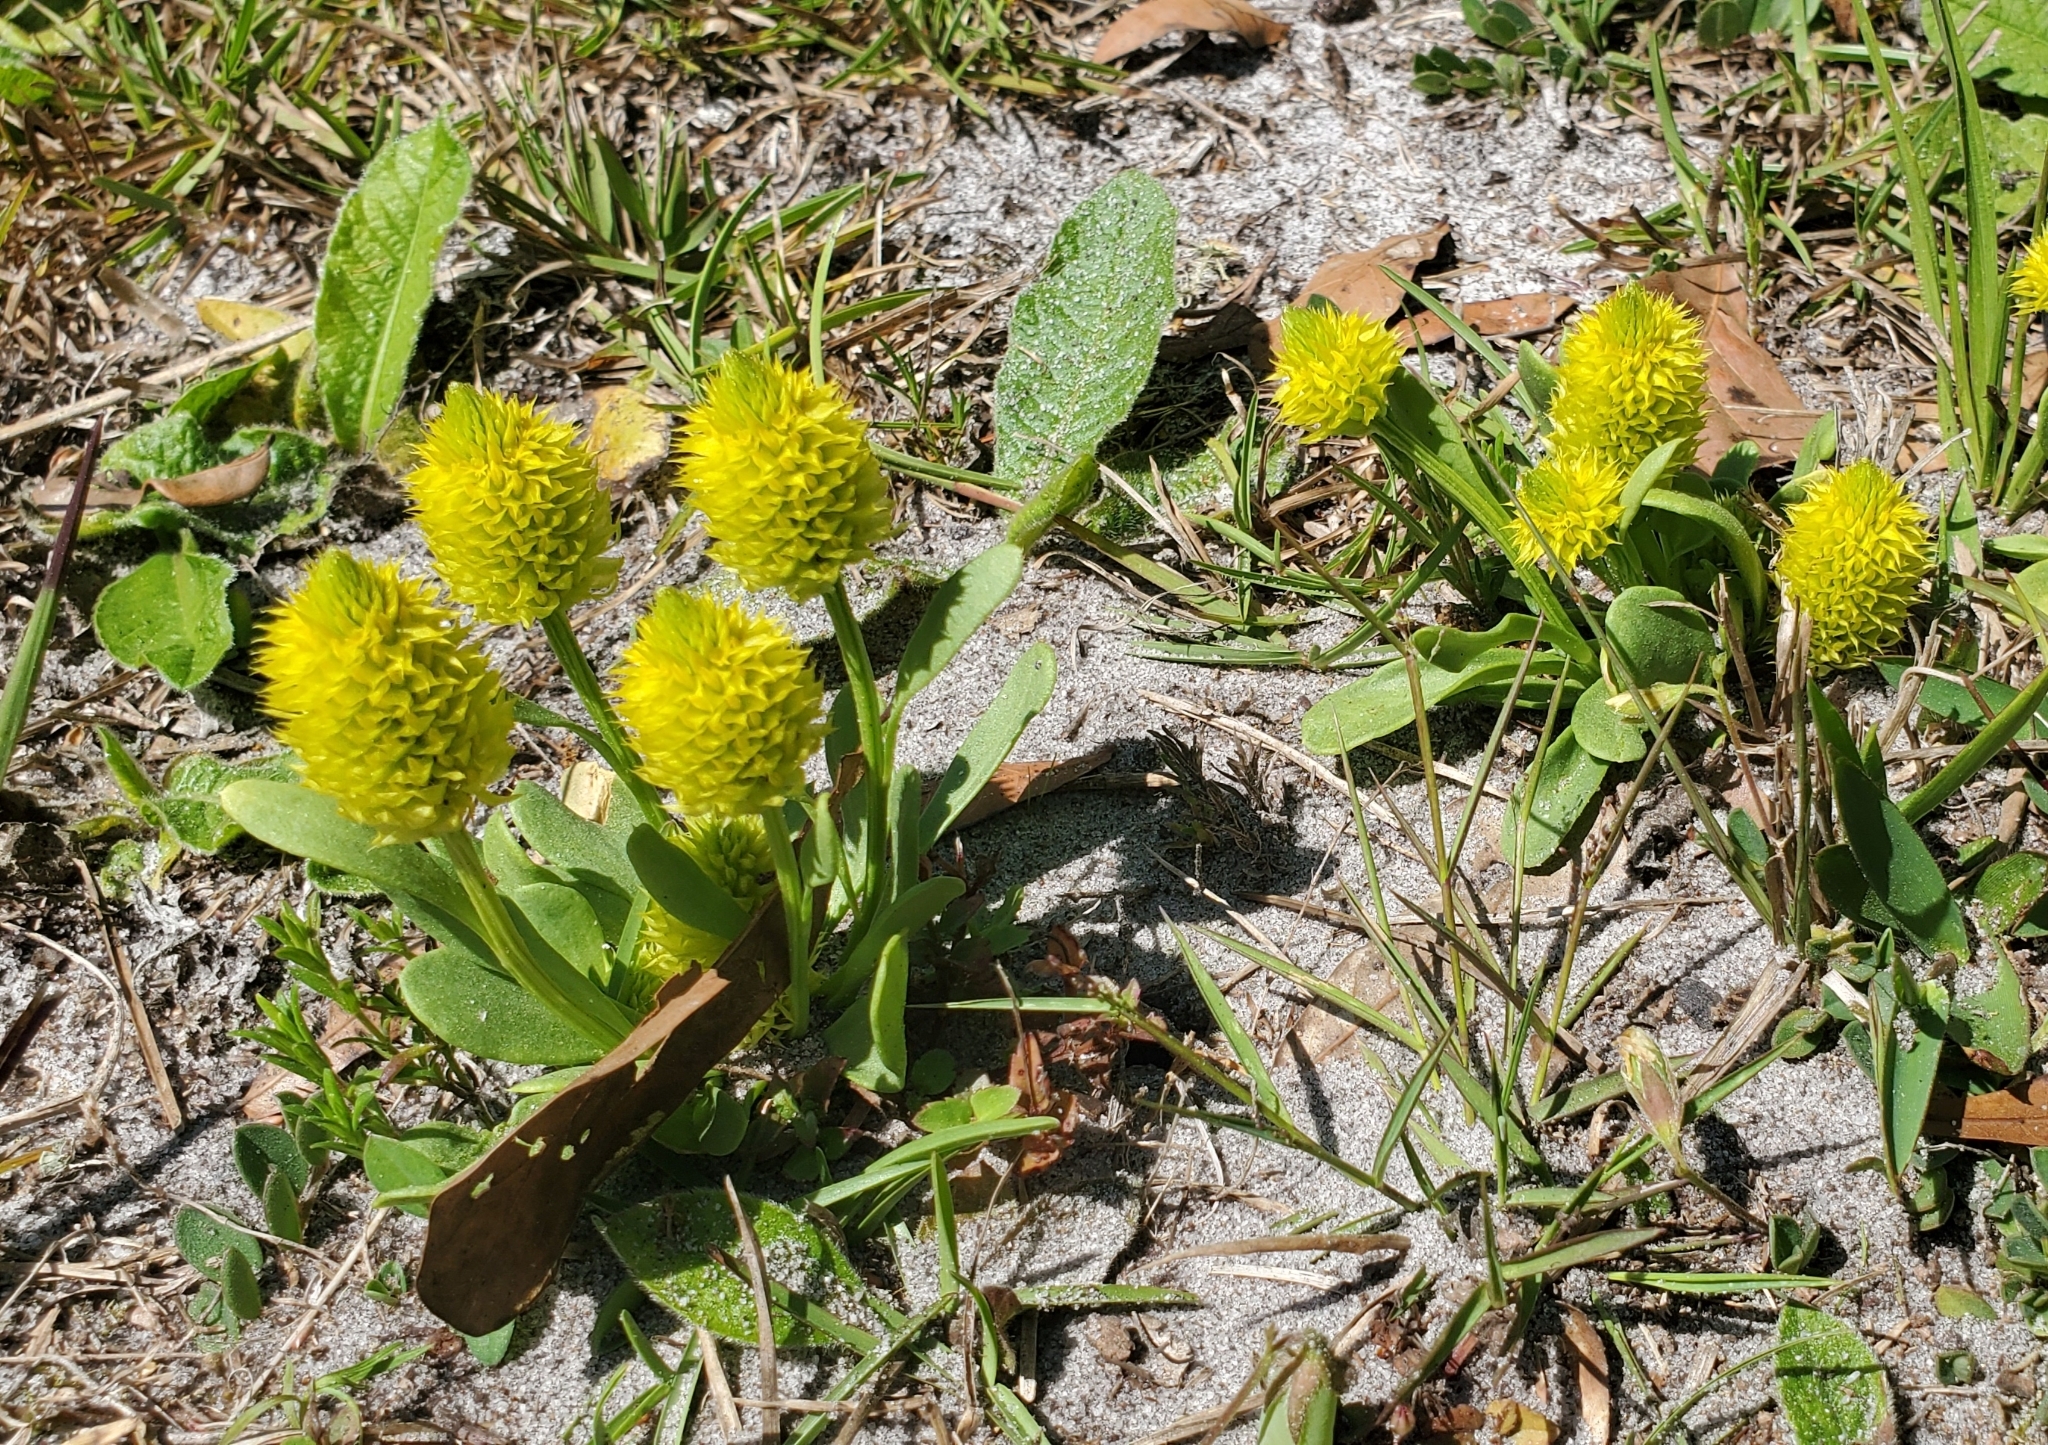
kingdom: Plantae
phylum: Tracheophyta
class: Magnoliopsida
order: Fabales
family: Polygalaceae
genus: Polygala
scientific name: Polygala nana
